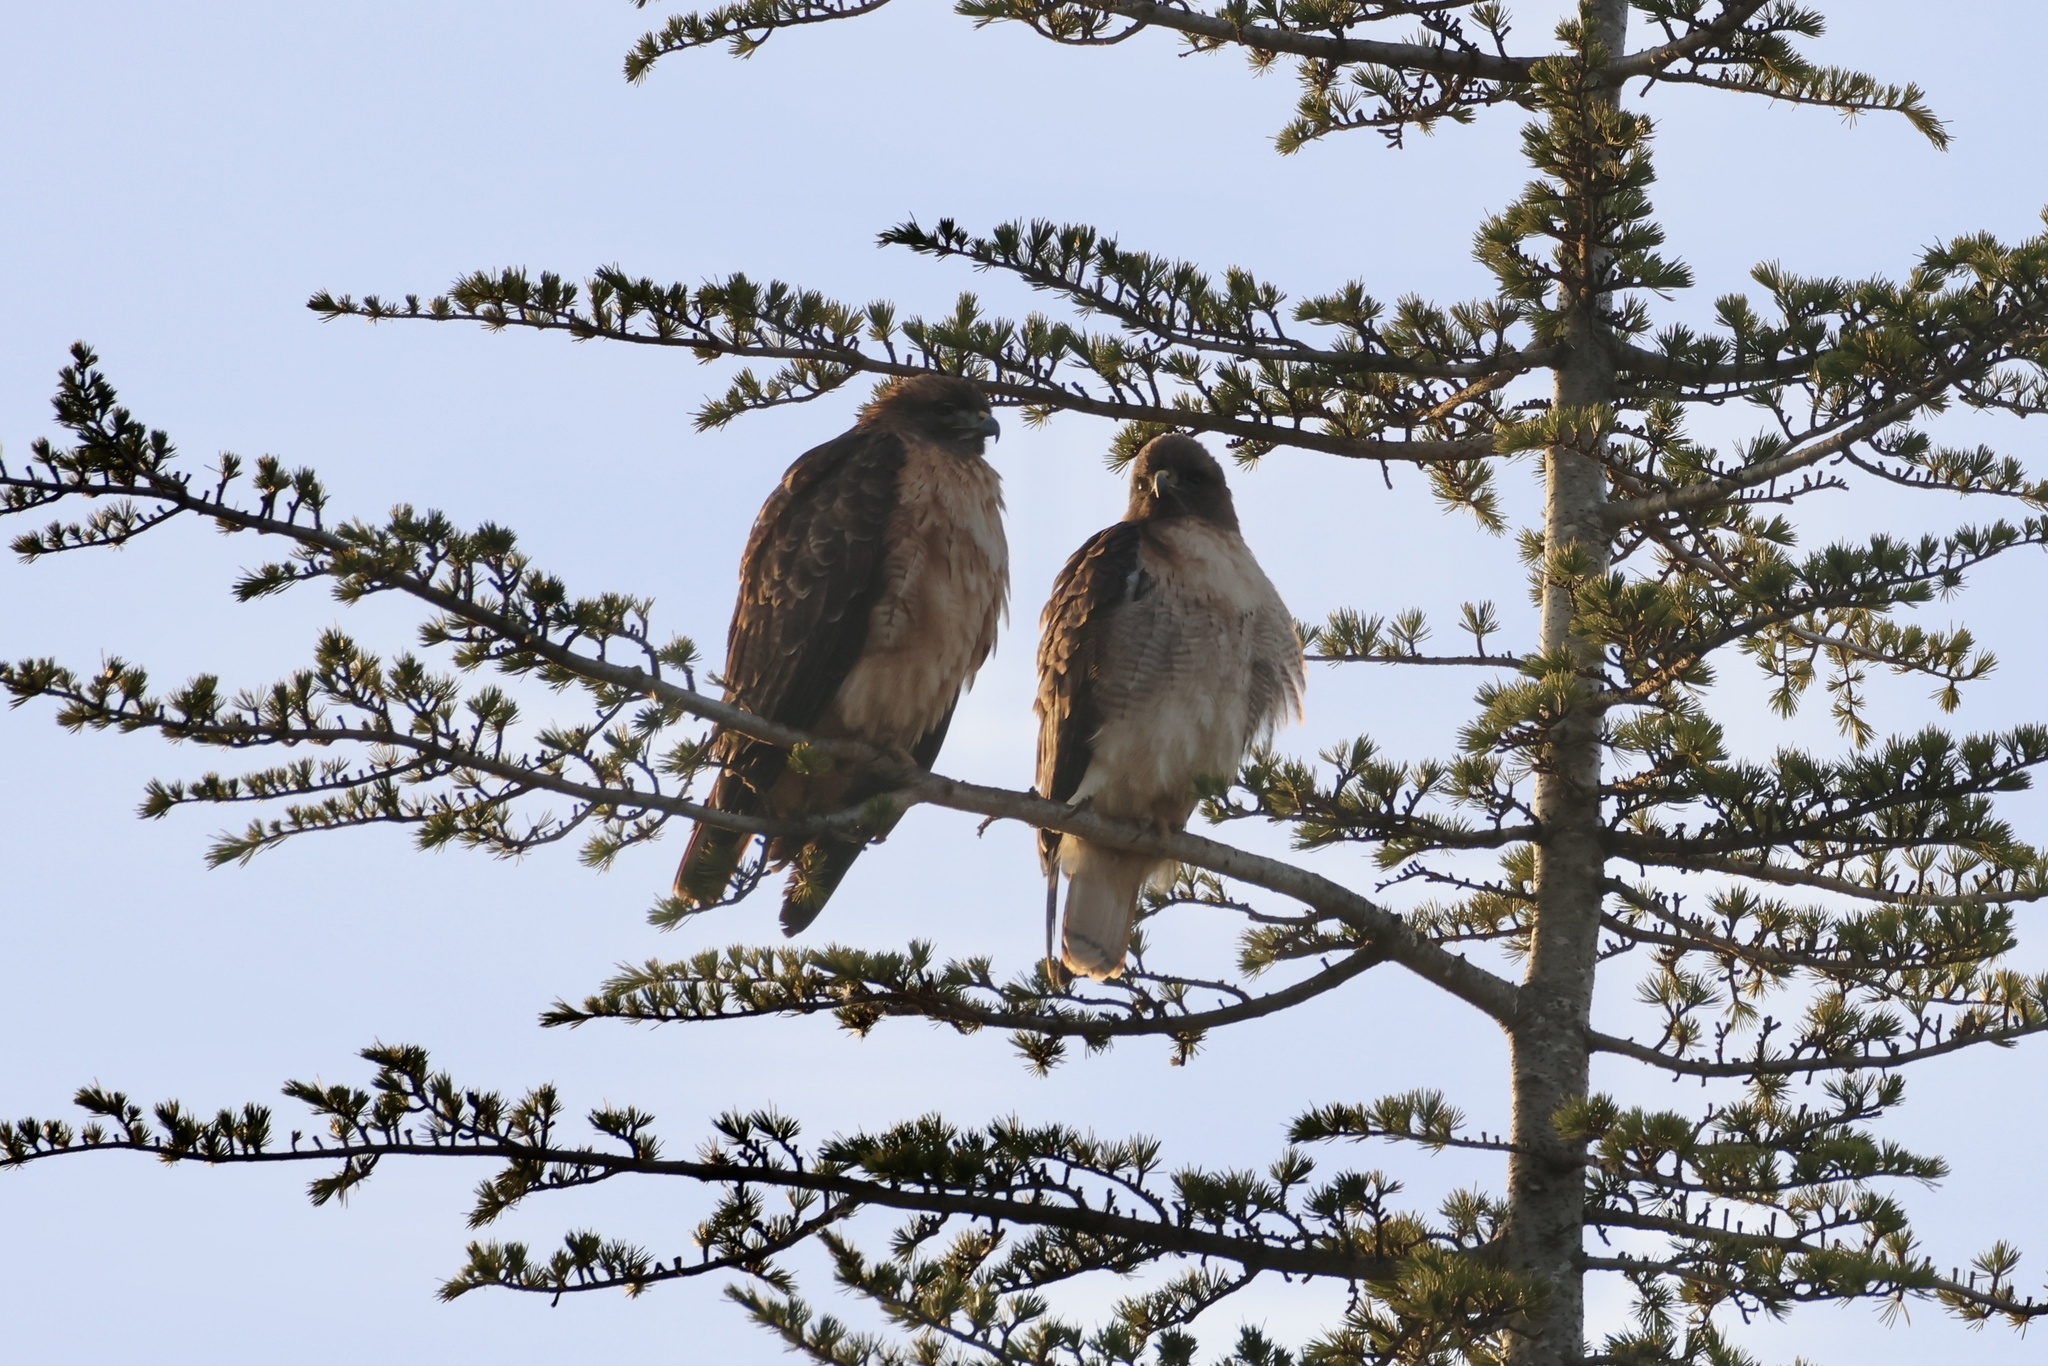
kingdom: Animalia
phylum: Chordata
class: Aves
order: Accipitriformes
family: Accipitridae
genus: Buteo
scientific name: Buteo jamaicensis
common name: Red-tailed hawk
